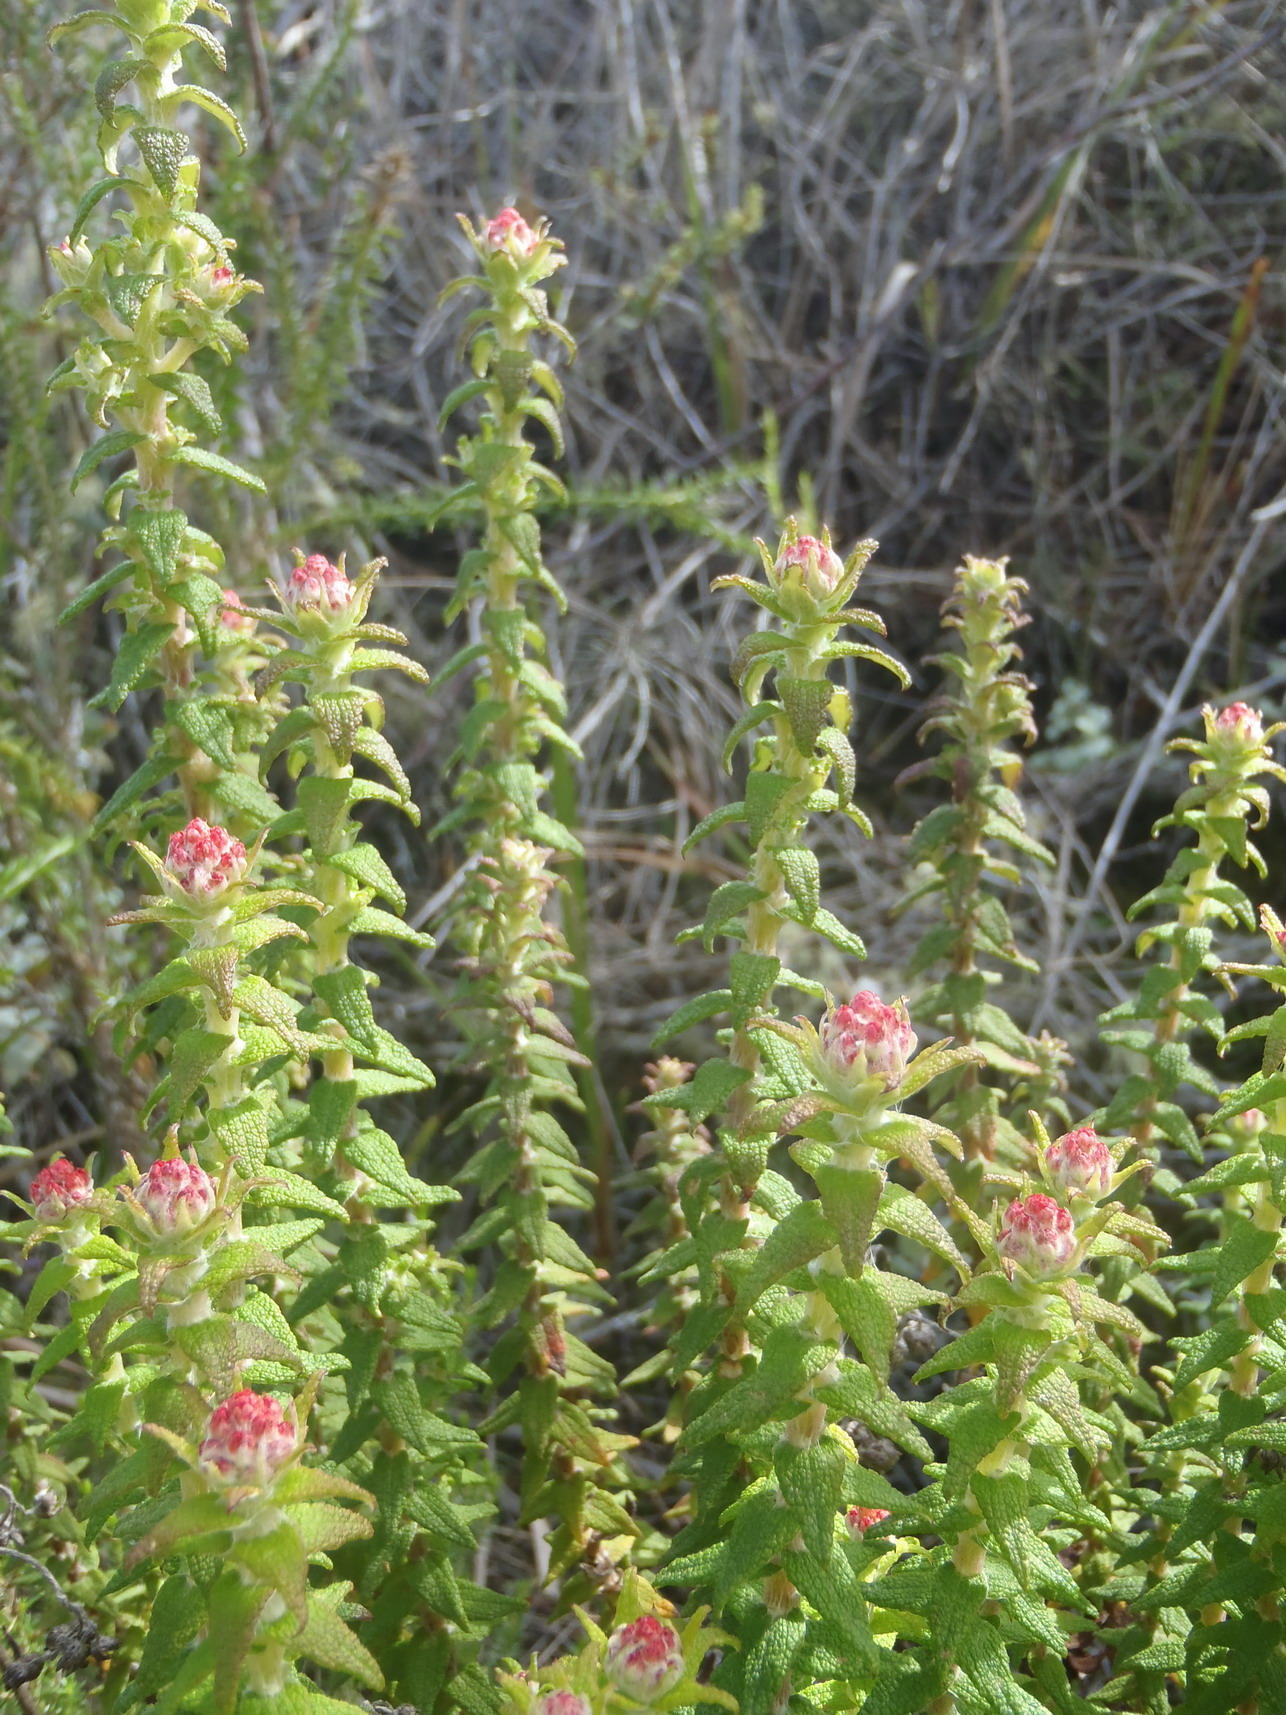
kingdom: Plantae
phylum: Tracheophyta
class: Magnoliopsida
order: Asterales
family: Asteraceae
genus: Helichrysum
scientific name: Helichrysum felinum
